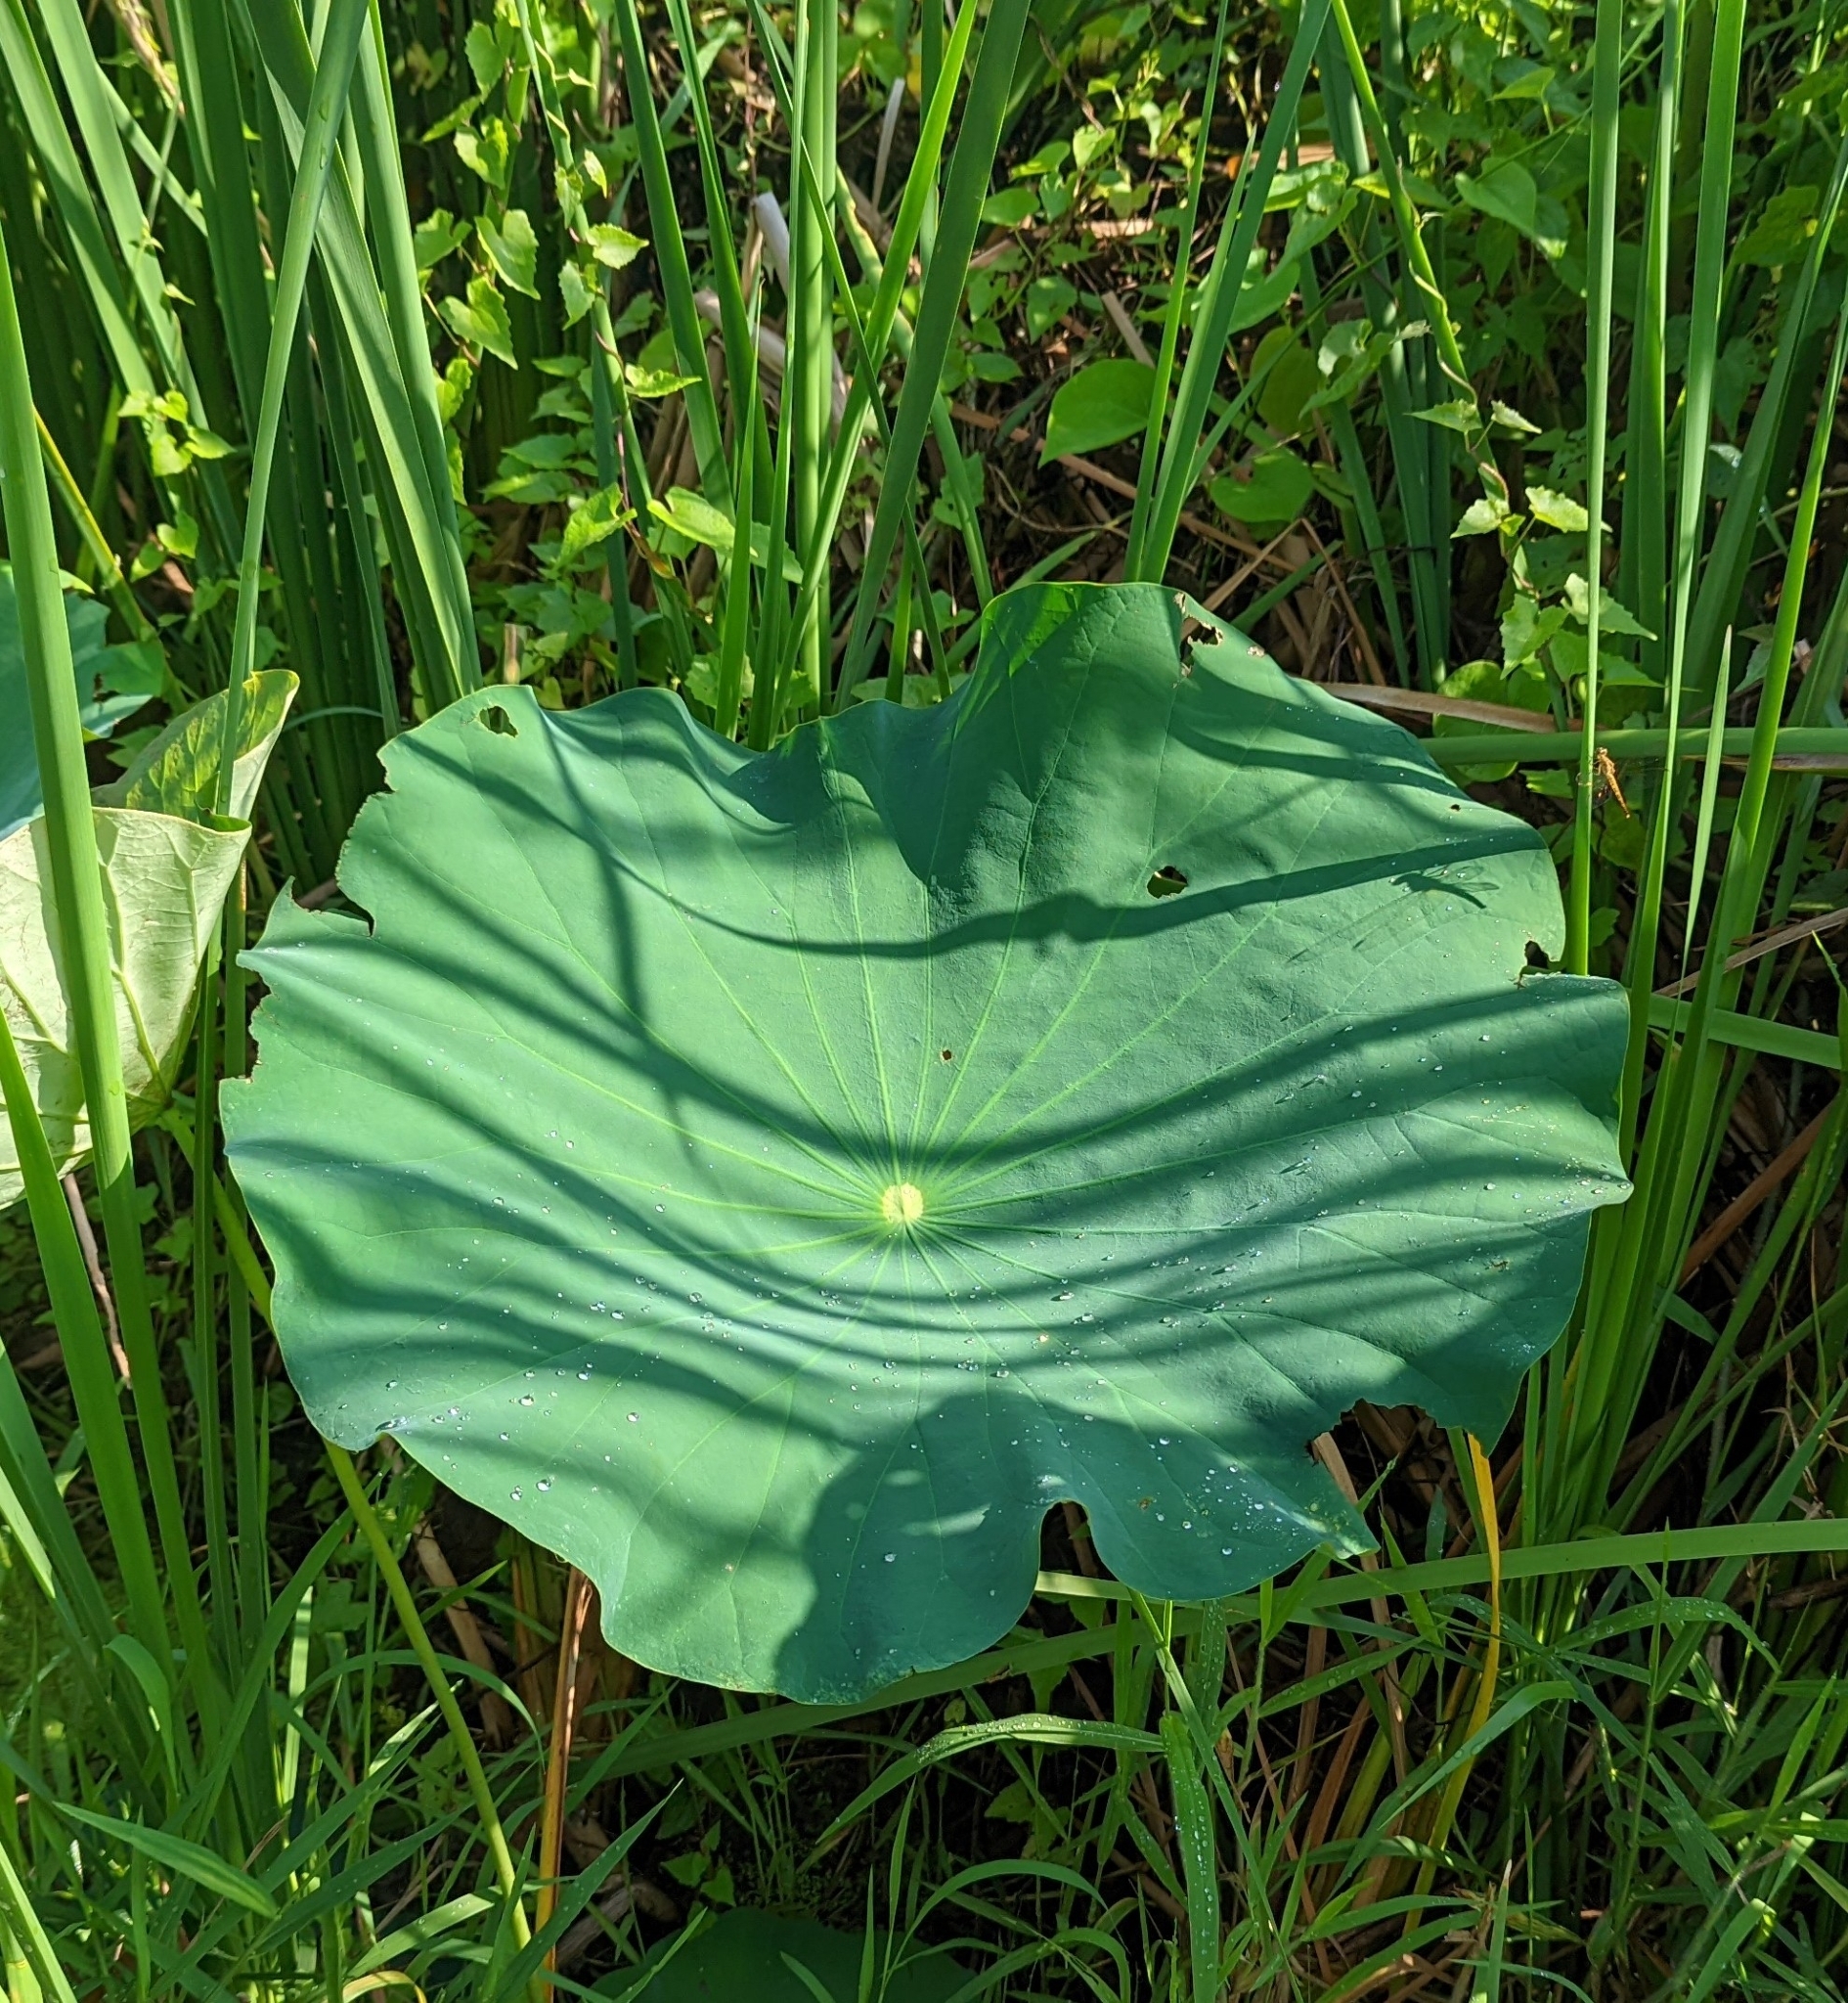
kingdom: Plantae
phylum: Tracheophyta
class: Magnoliopsida
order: Proteales
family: Nelumbonaceae
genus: Nelumbo
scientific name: Nelumbo nucifera
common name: Sacred lotus
